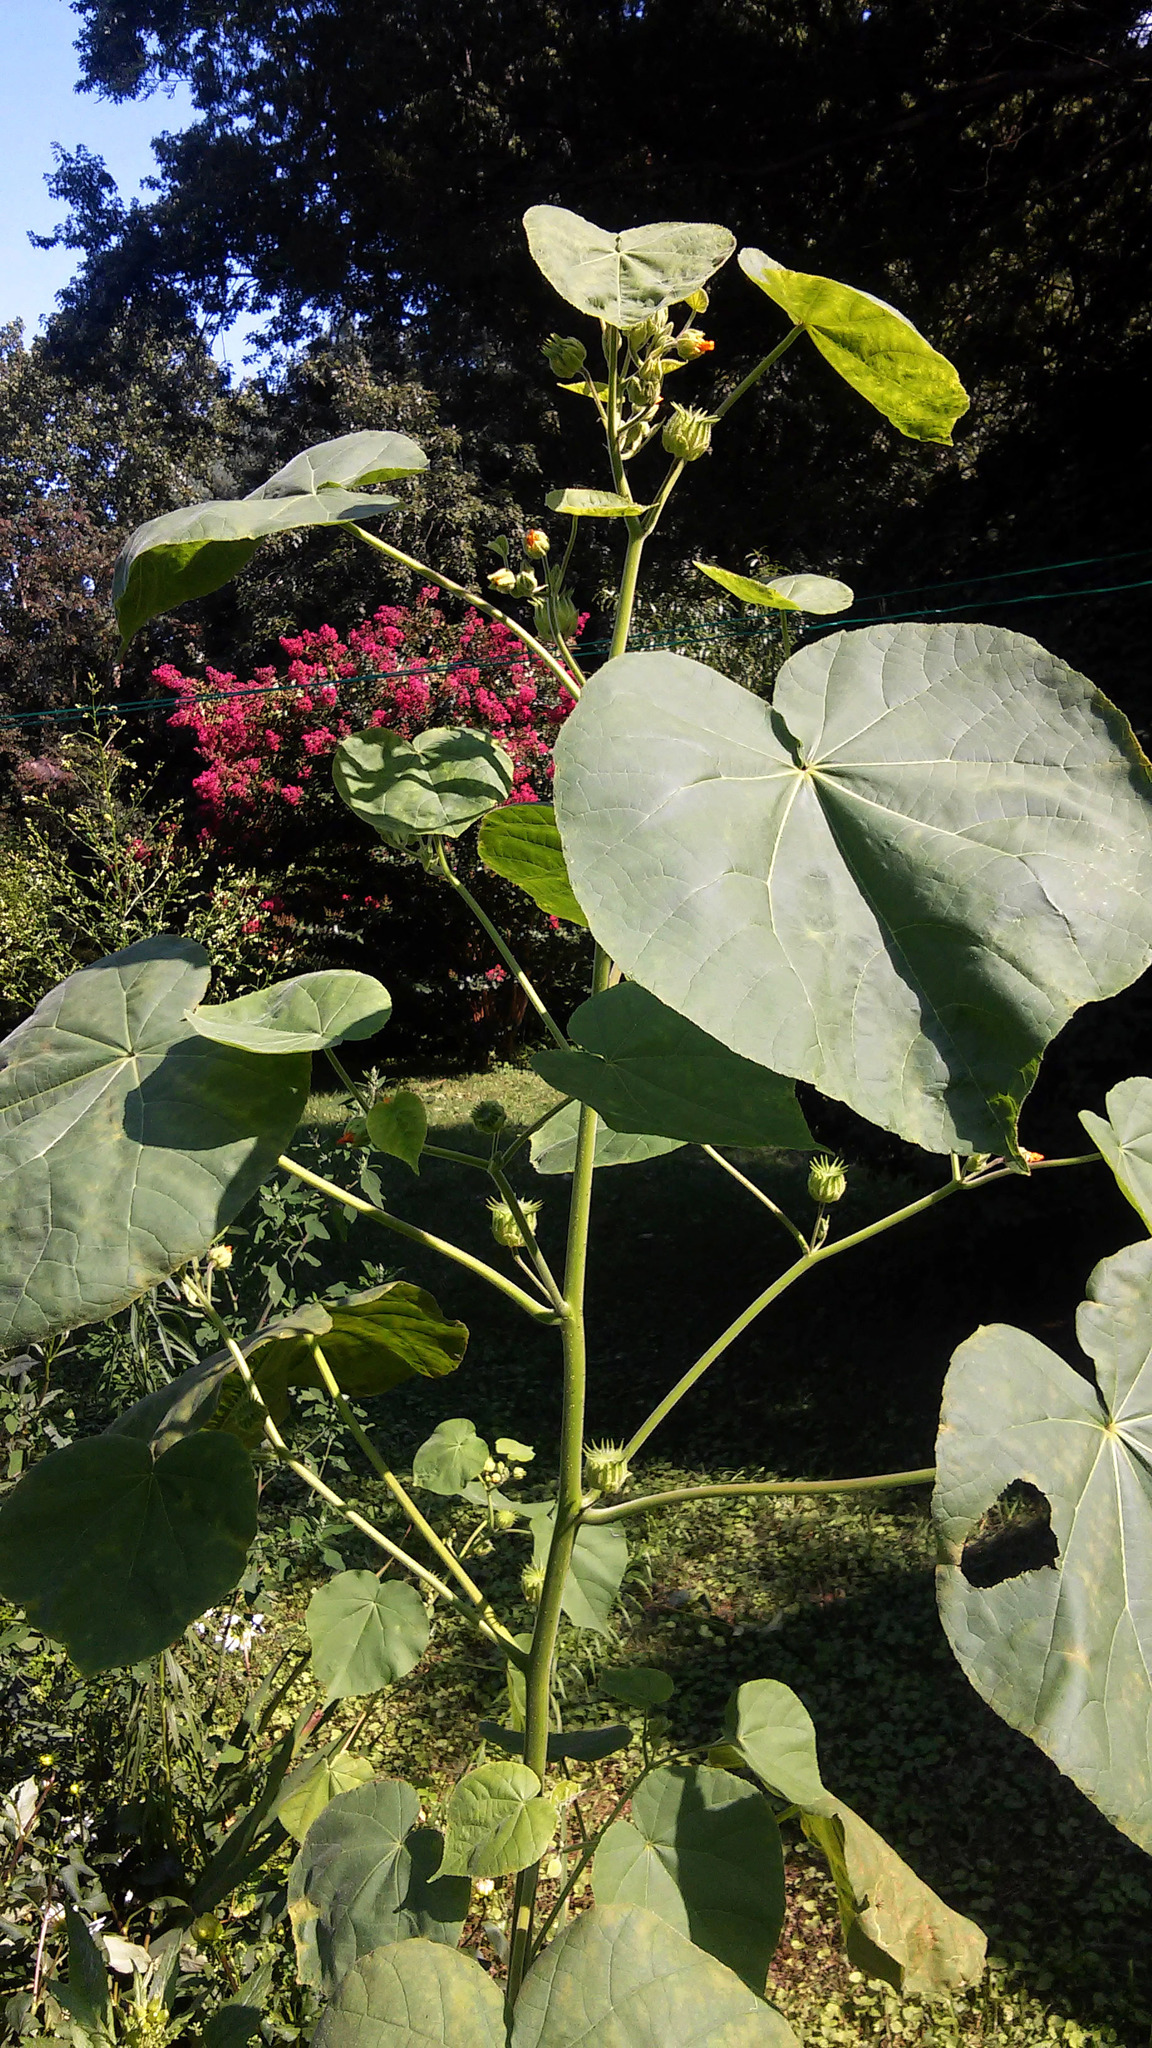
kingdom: Plantae
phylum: Tracheophyta
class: Magnoliopsida
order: Malvales
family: Malvaceae
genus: Abutilon
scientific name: Abutilon theophrasti
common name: Velvetleaf
